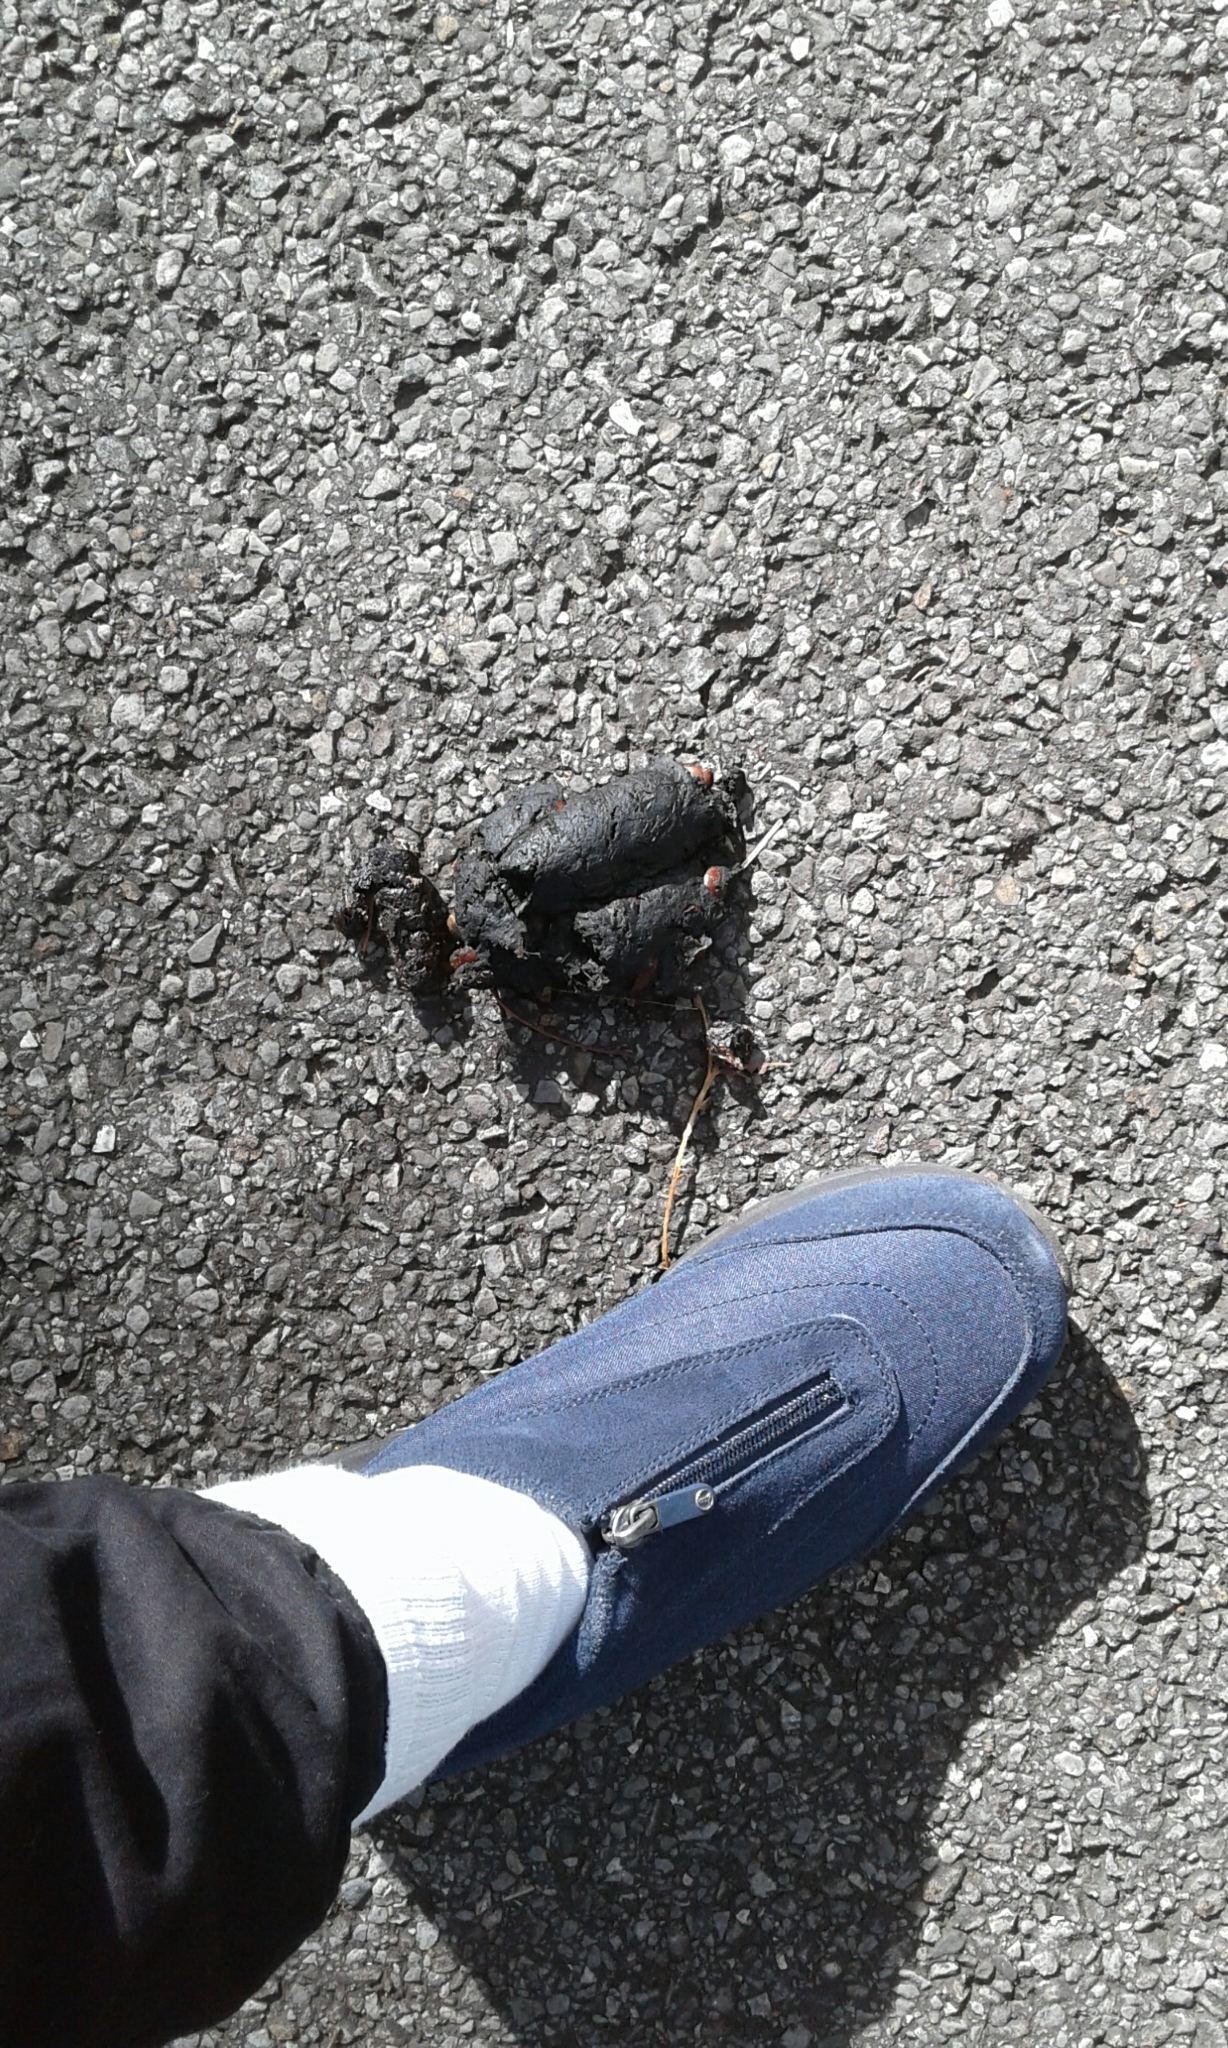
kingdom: Animalia
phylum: Chordata
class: Mammalia
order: Carnivora
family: Ursidae
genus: Ursus
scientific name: Ursus americanus
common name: American black bear
